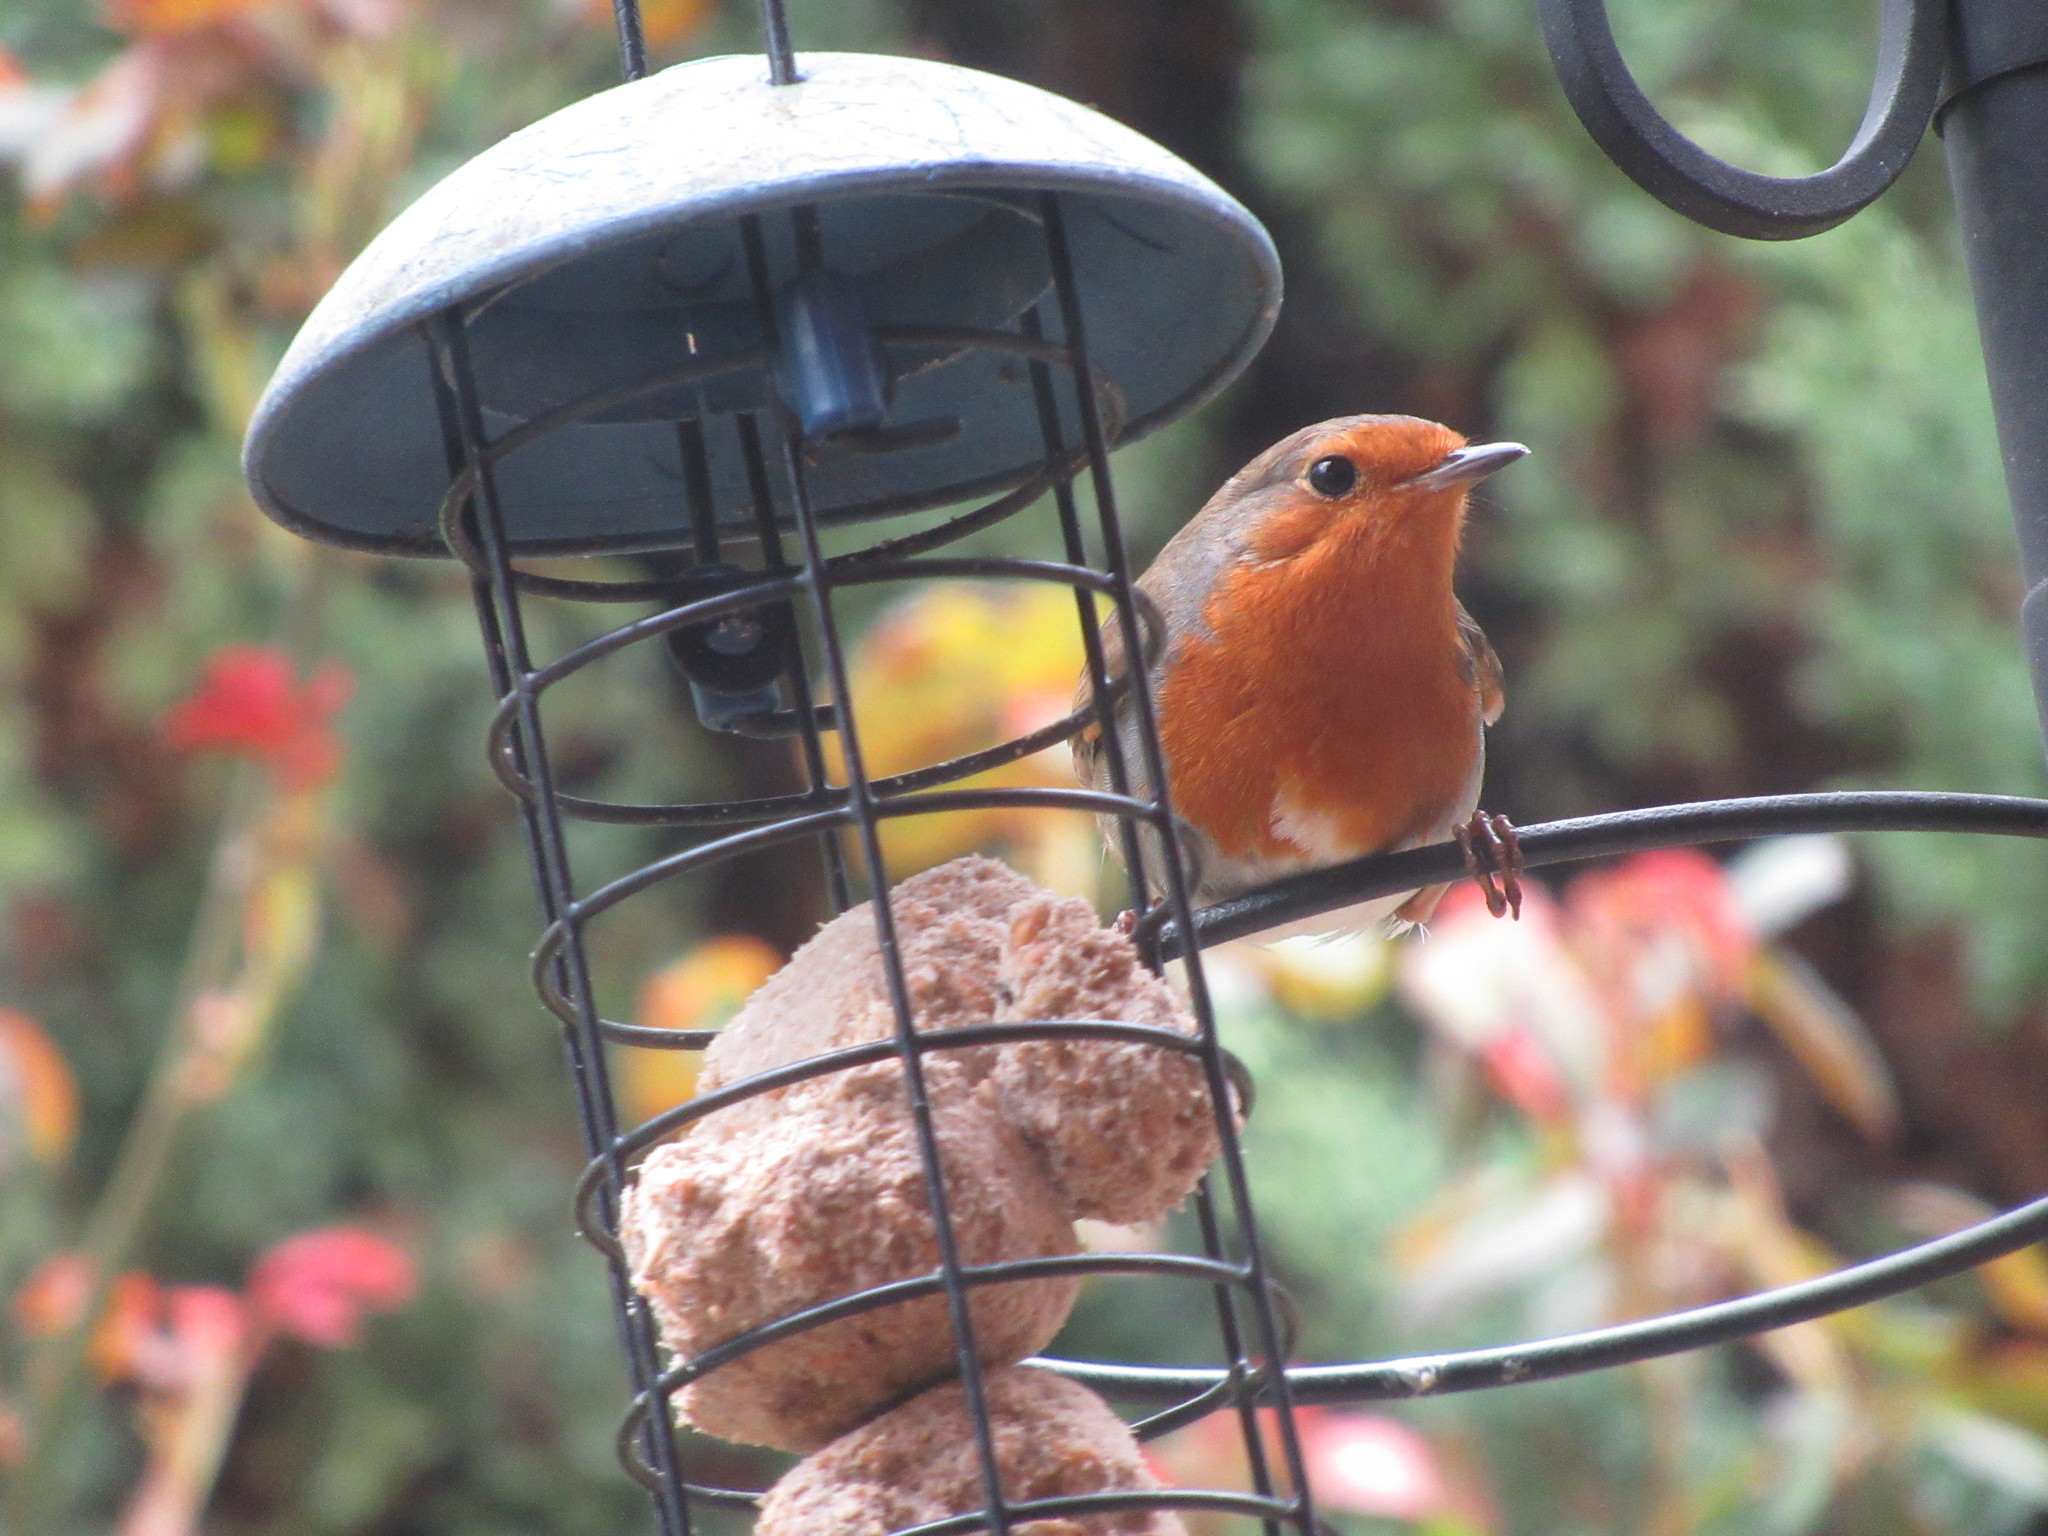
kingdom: Animalia
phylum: Chordata
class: Aves
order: Passeriformes
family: Muscicapidae
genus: Erithacus
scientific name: Erithacus rubecula
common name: European robin
